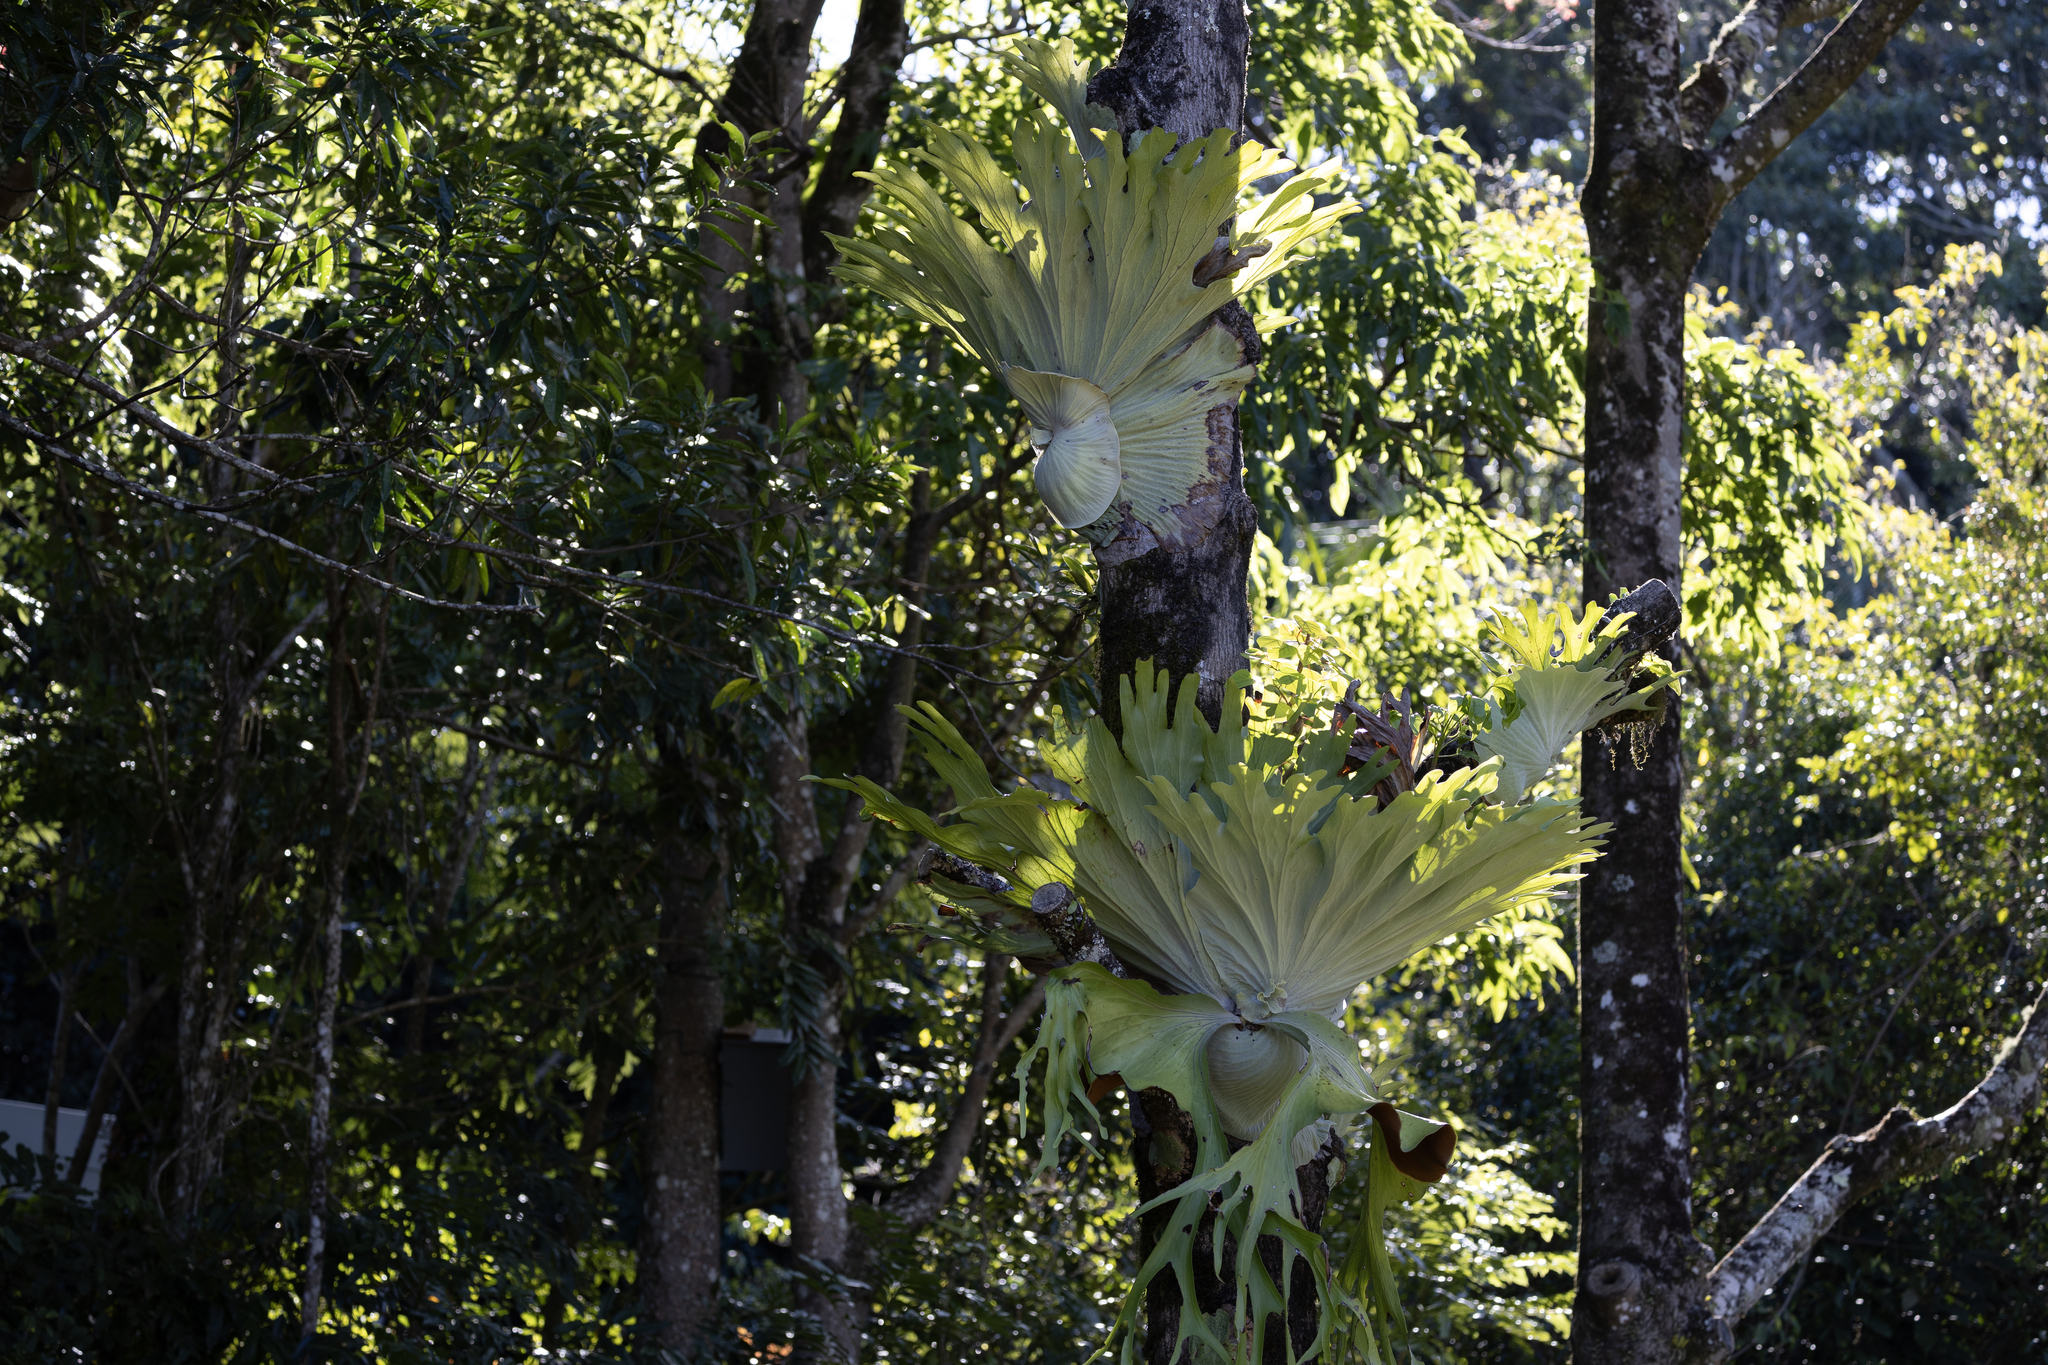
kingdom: Plantae
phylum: Tracheophyta
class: Polypodiopsida
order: Polypodiales
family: Polypodiaceae
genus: Platycerium
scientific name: Platycerium superbum
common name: Staghorn fern
